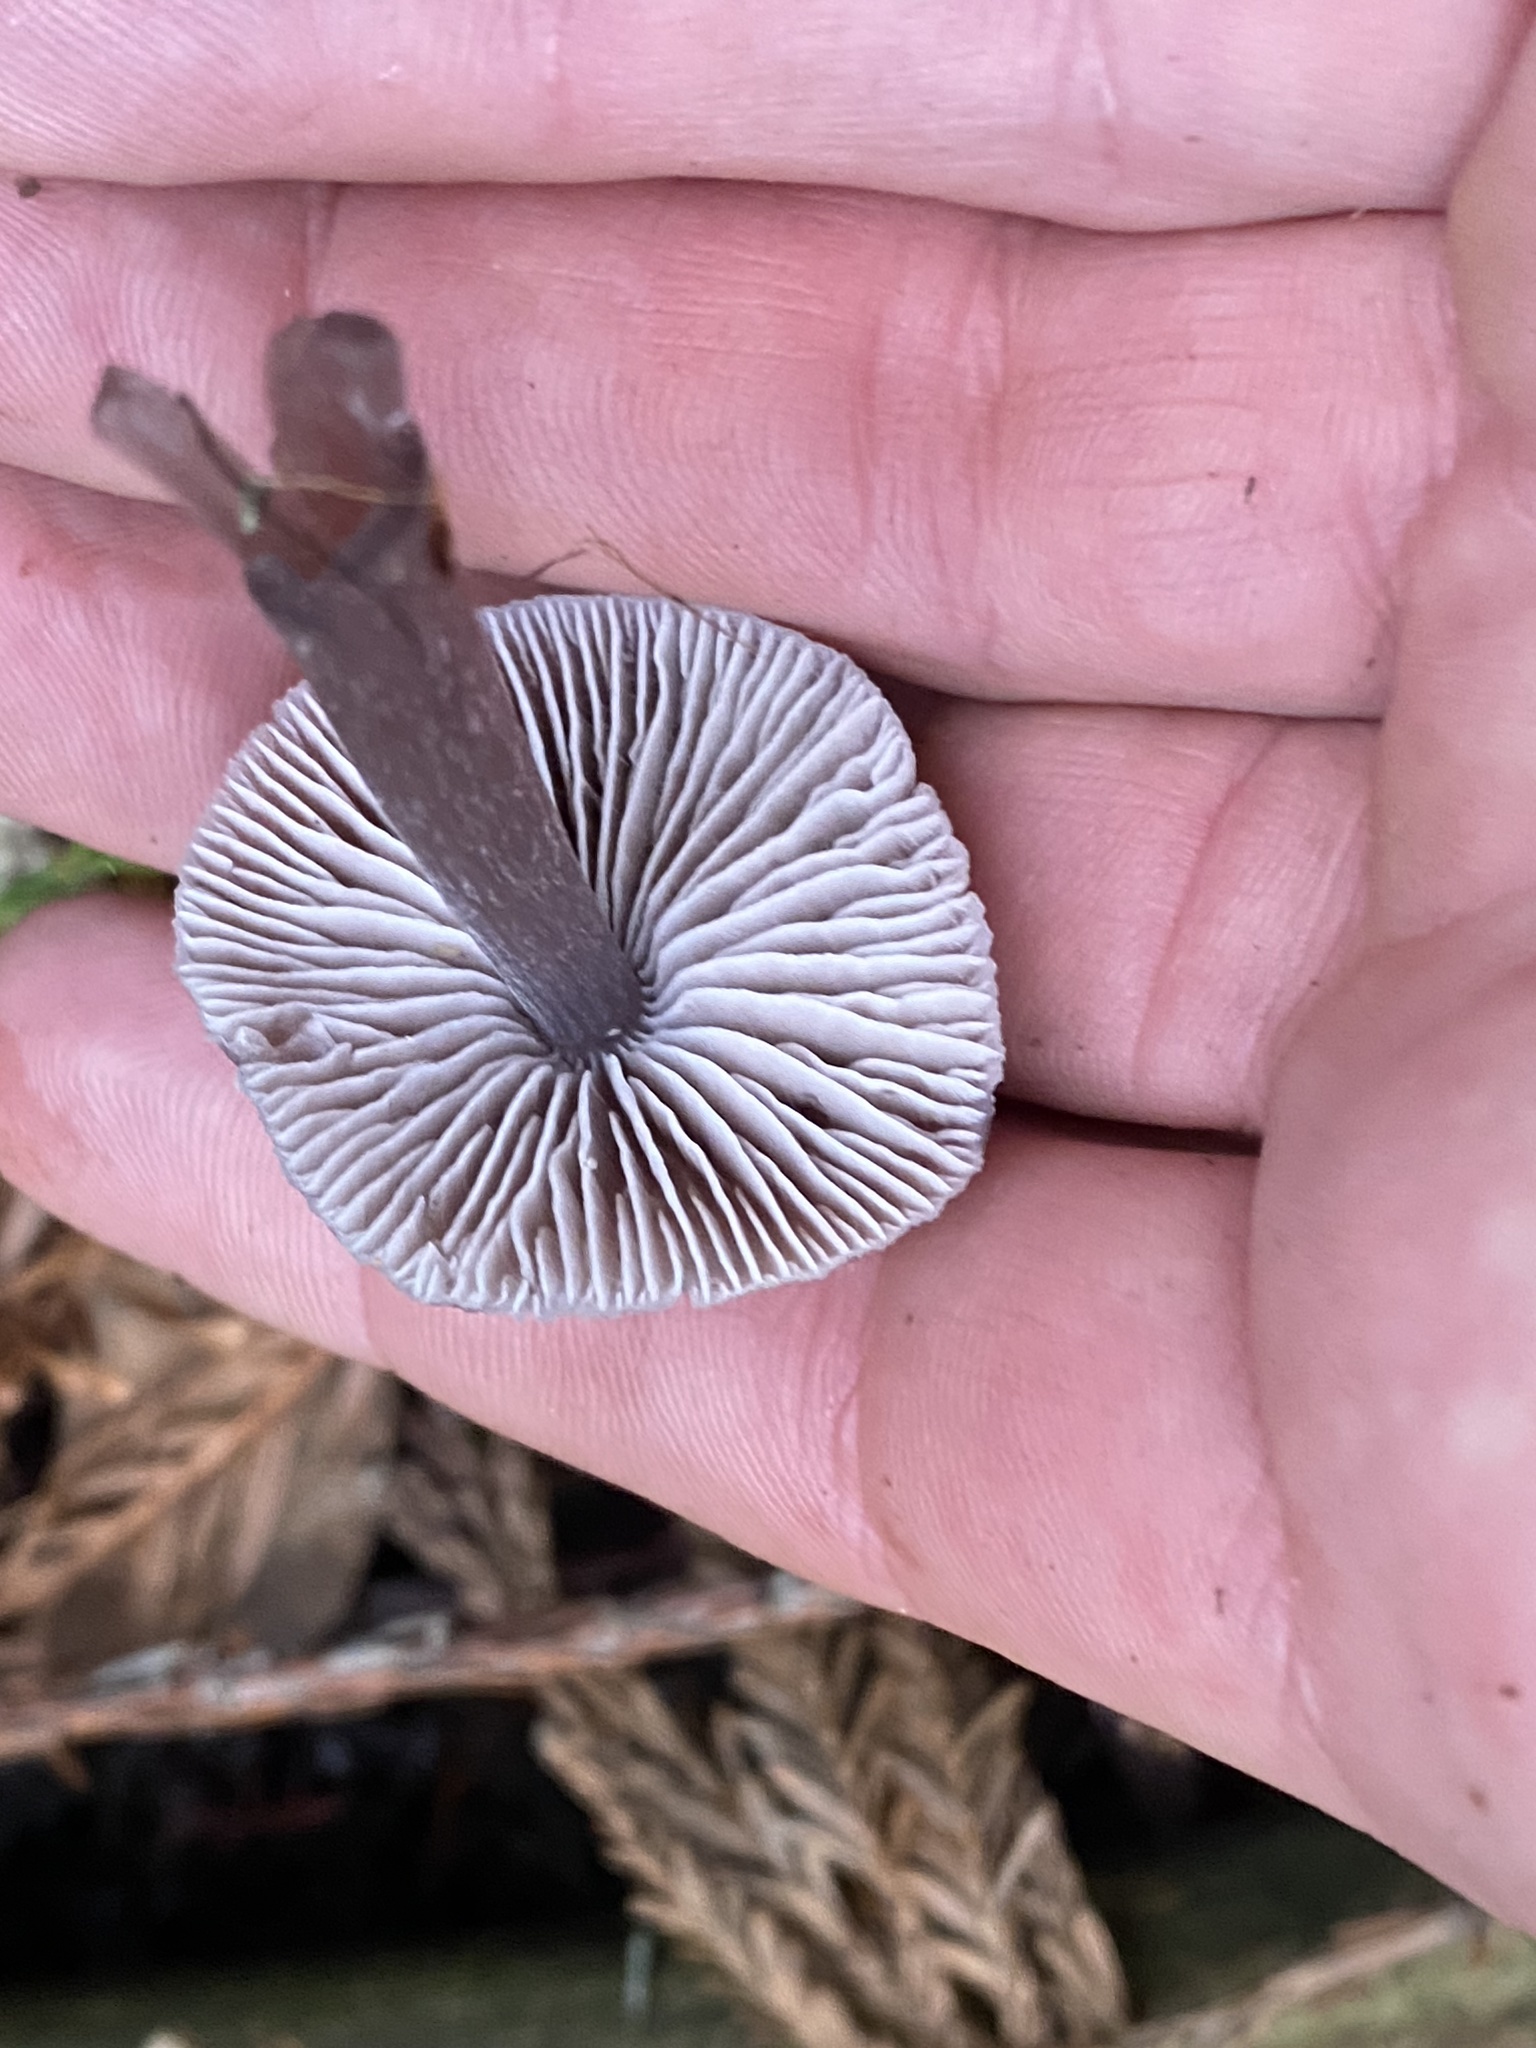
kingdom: Fungi
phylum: Basidiomycota
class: Agaricomycetes
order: Agaricales
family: Mycenaceae
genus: Mycena
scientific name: Mycena pura
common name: Lilac bonnet
